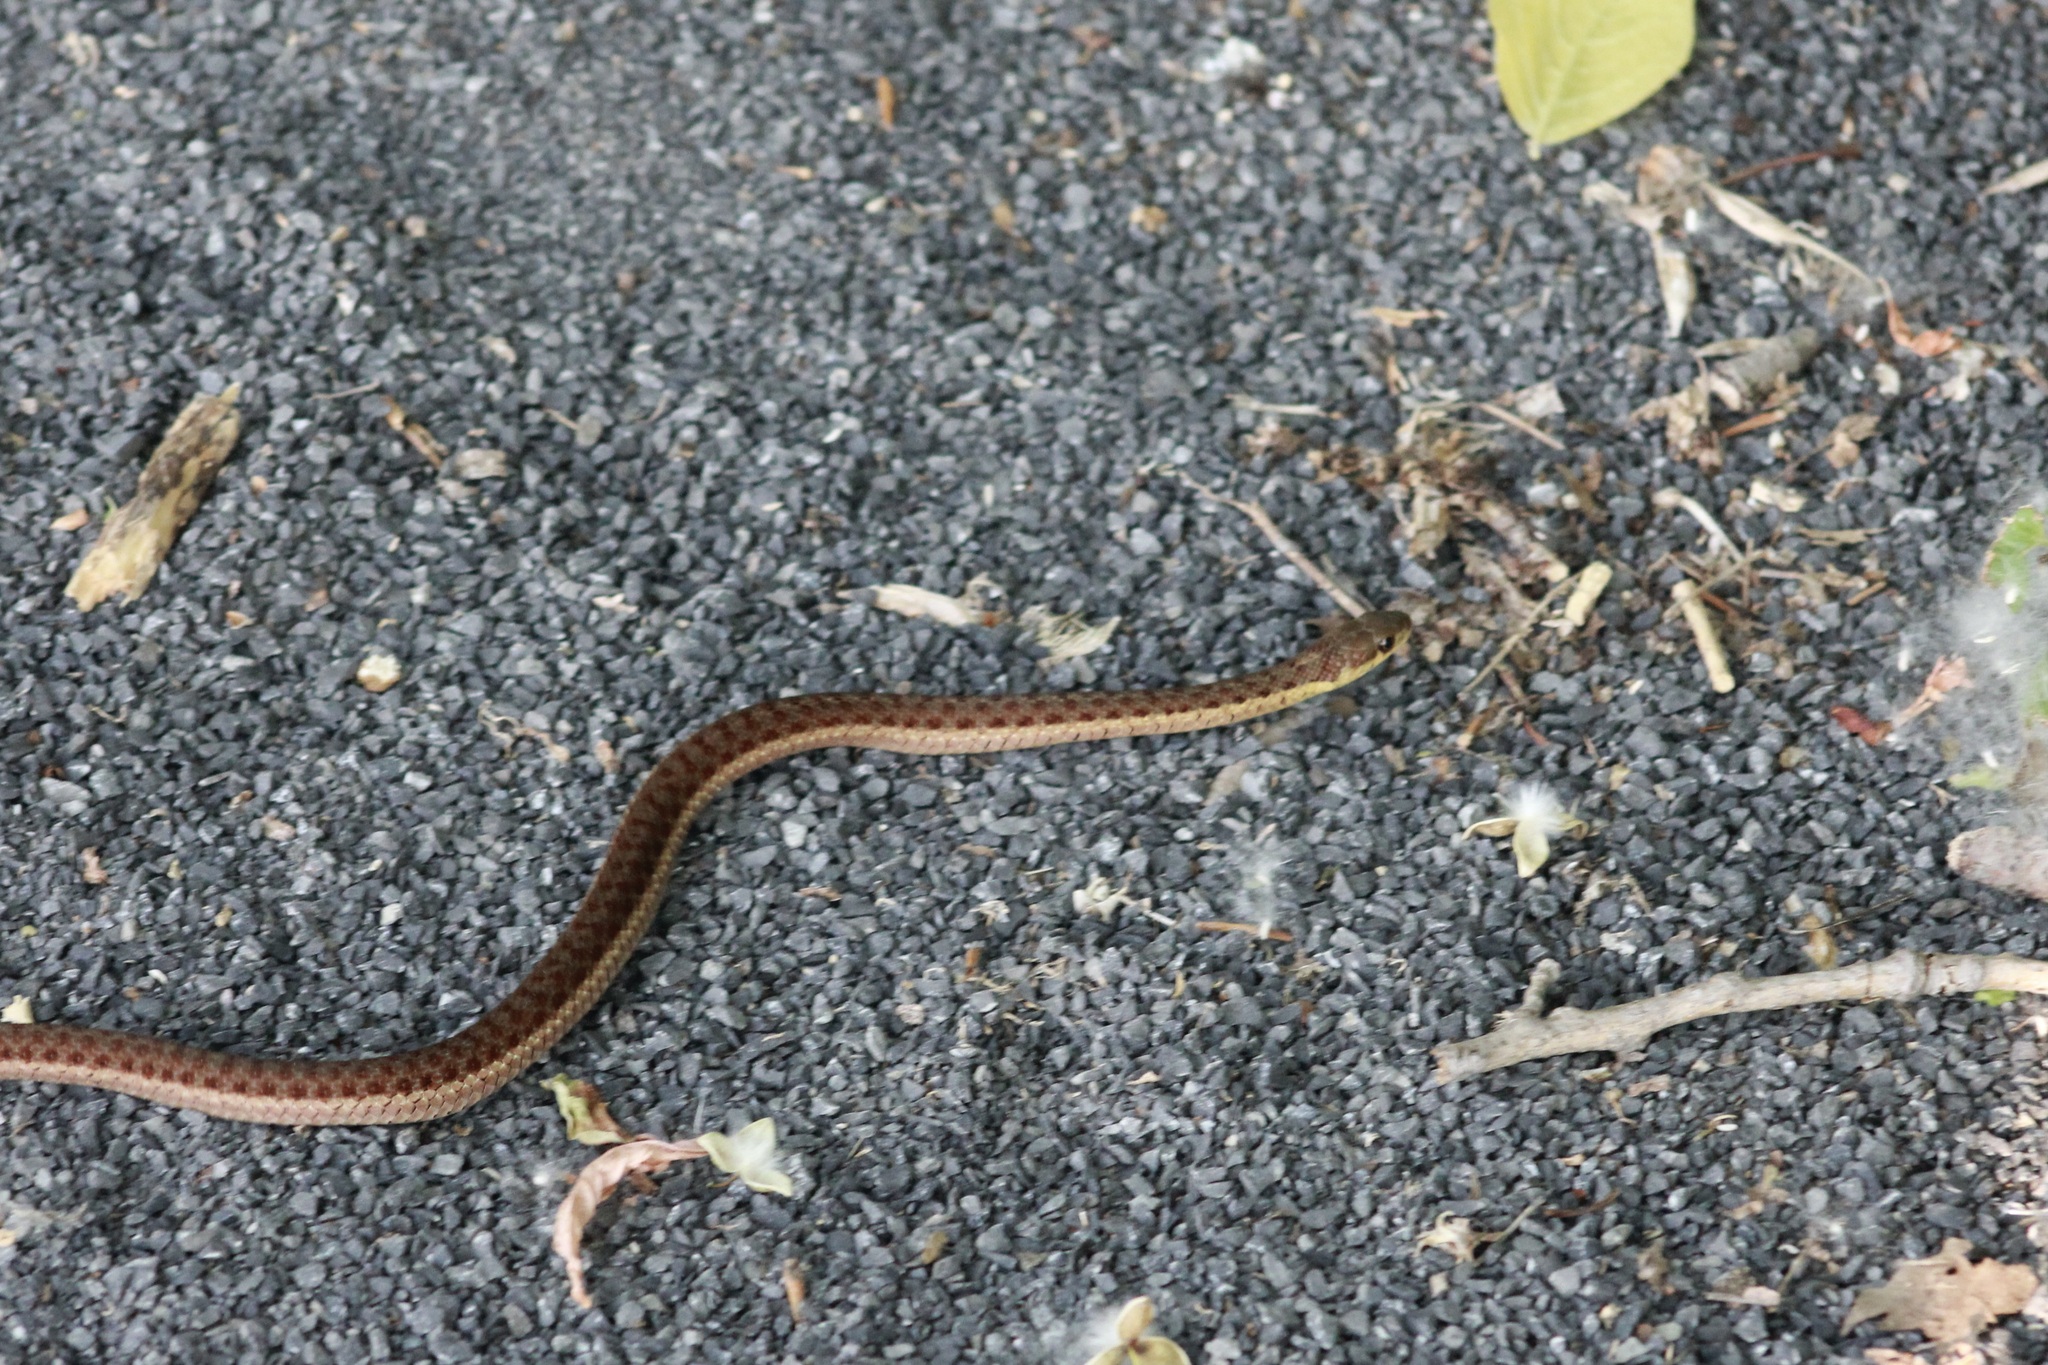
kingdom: Animalia
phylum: Chordata
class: Squamata
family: Colubridae
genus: Thamnophis
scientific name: Thamnophis sirtalis
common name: Common garter snake
